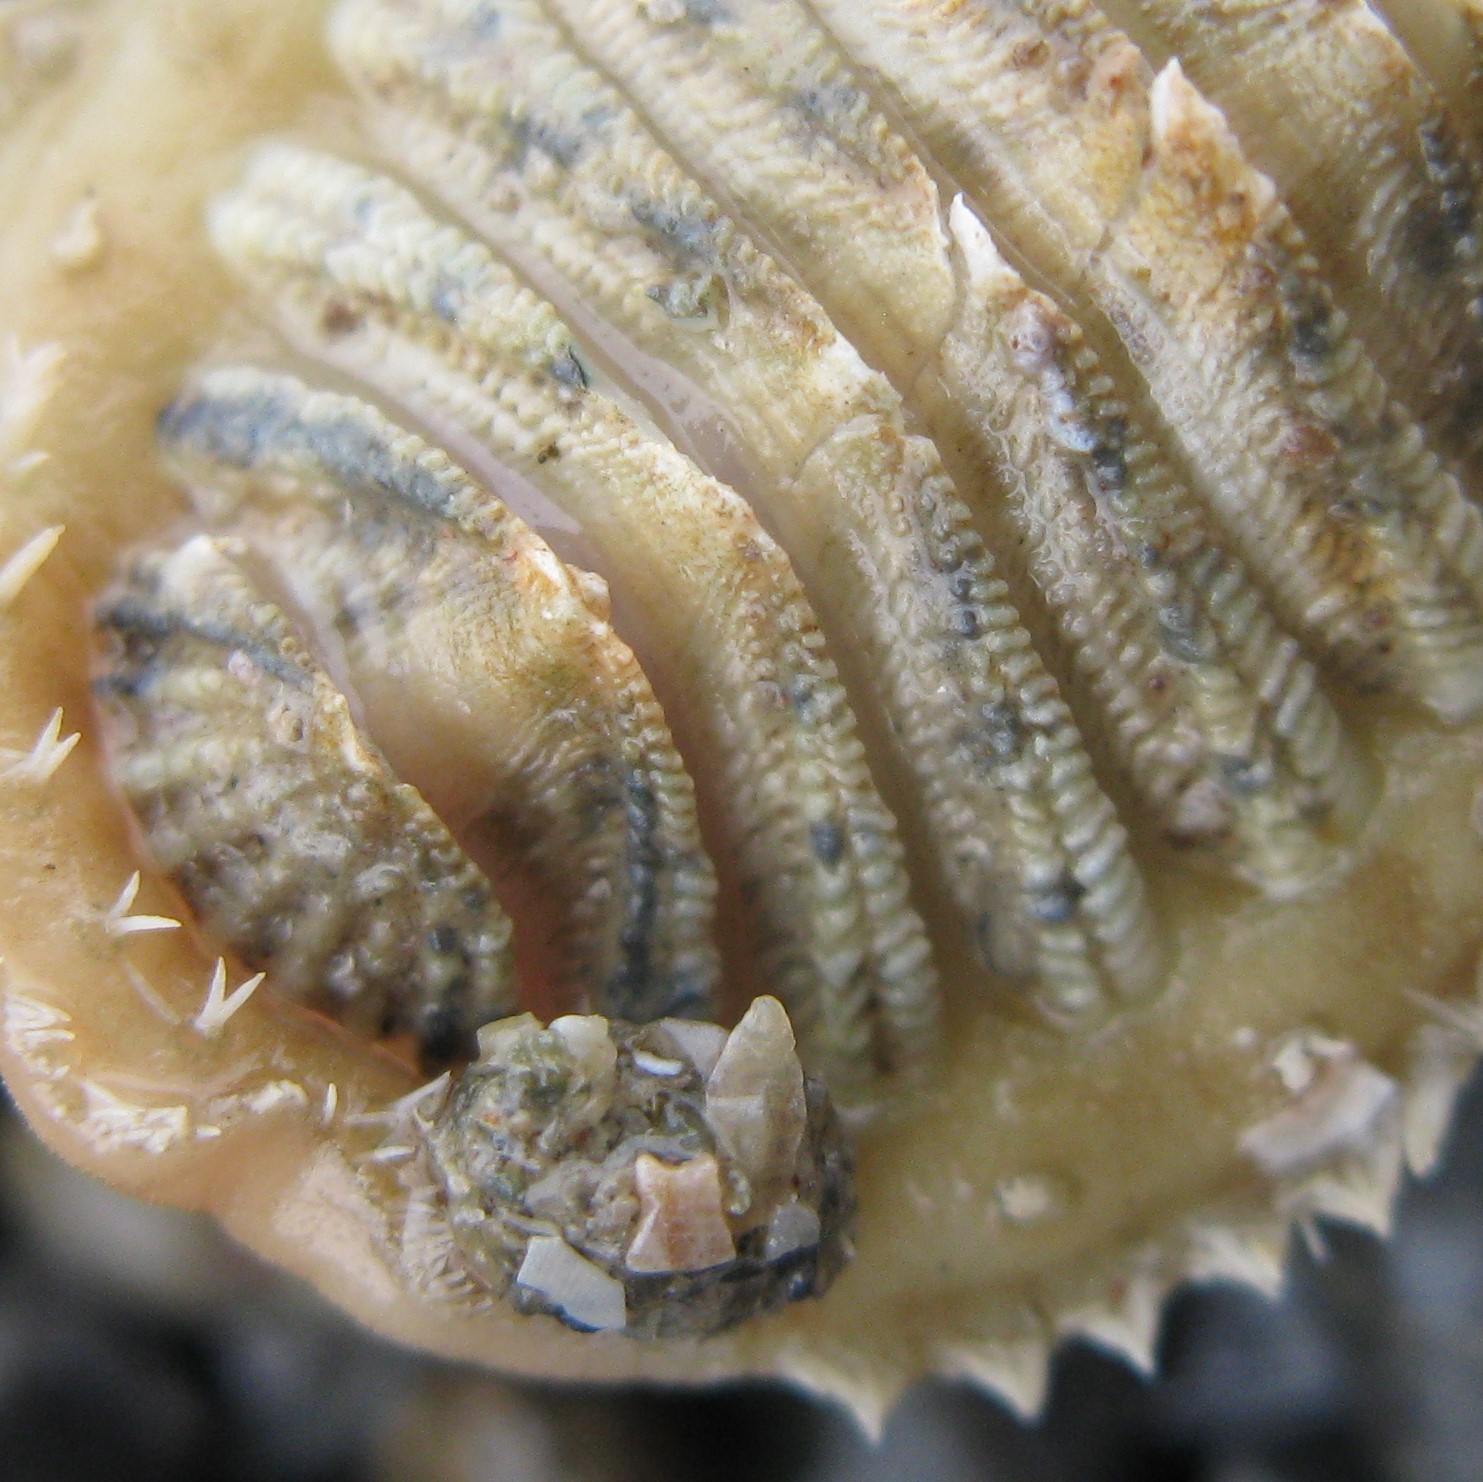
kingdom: Animalia
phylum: Mollusca
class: Polyplacophora
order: Chitonida
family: Mopaliidae
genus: Plaxiphora
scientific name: Plaxiphora egregia
